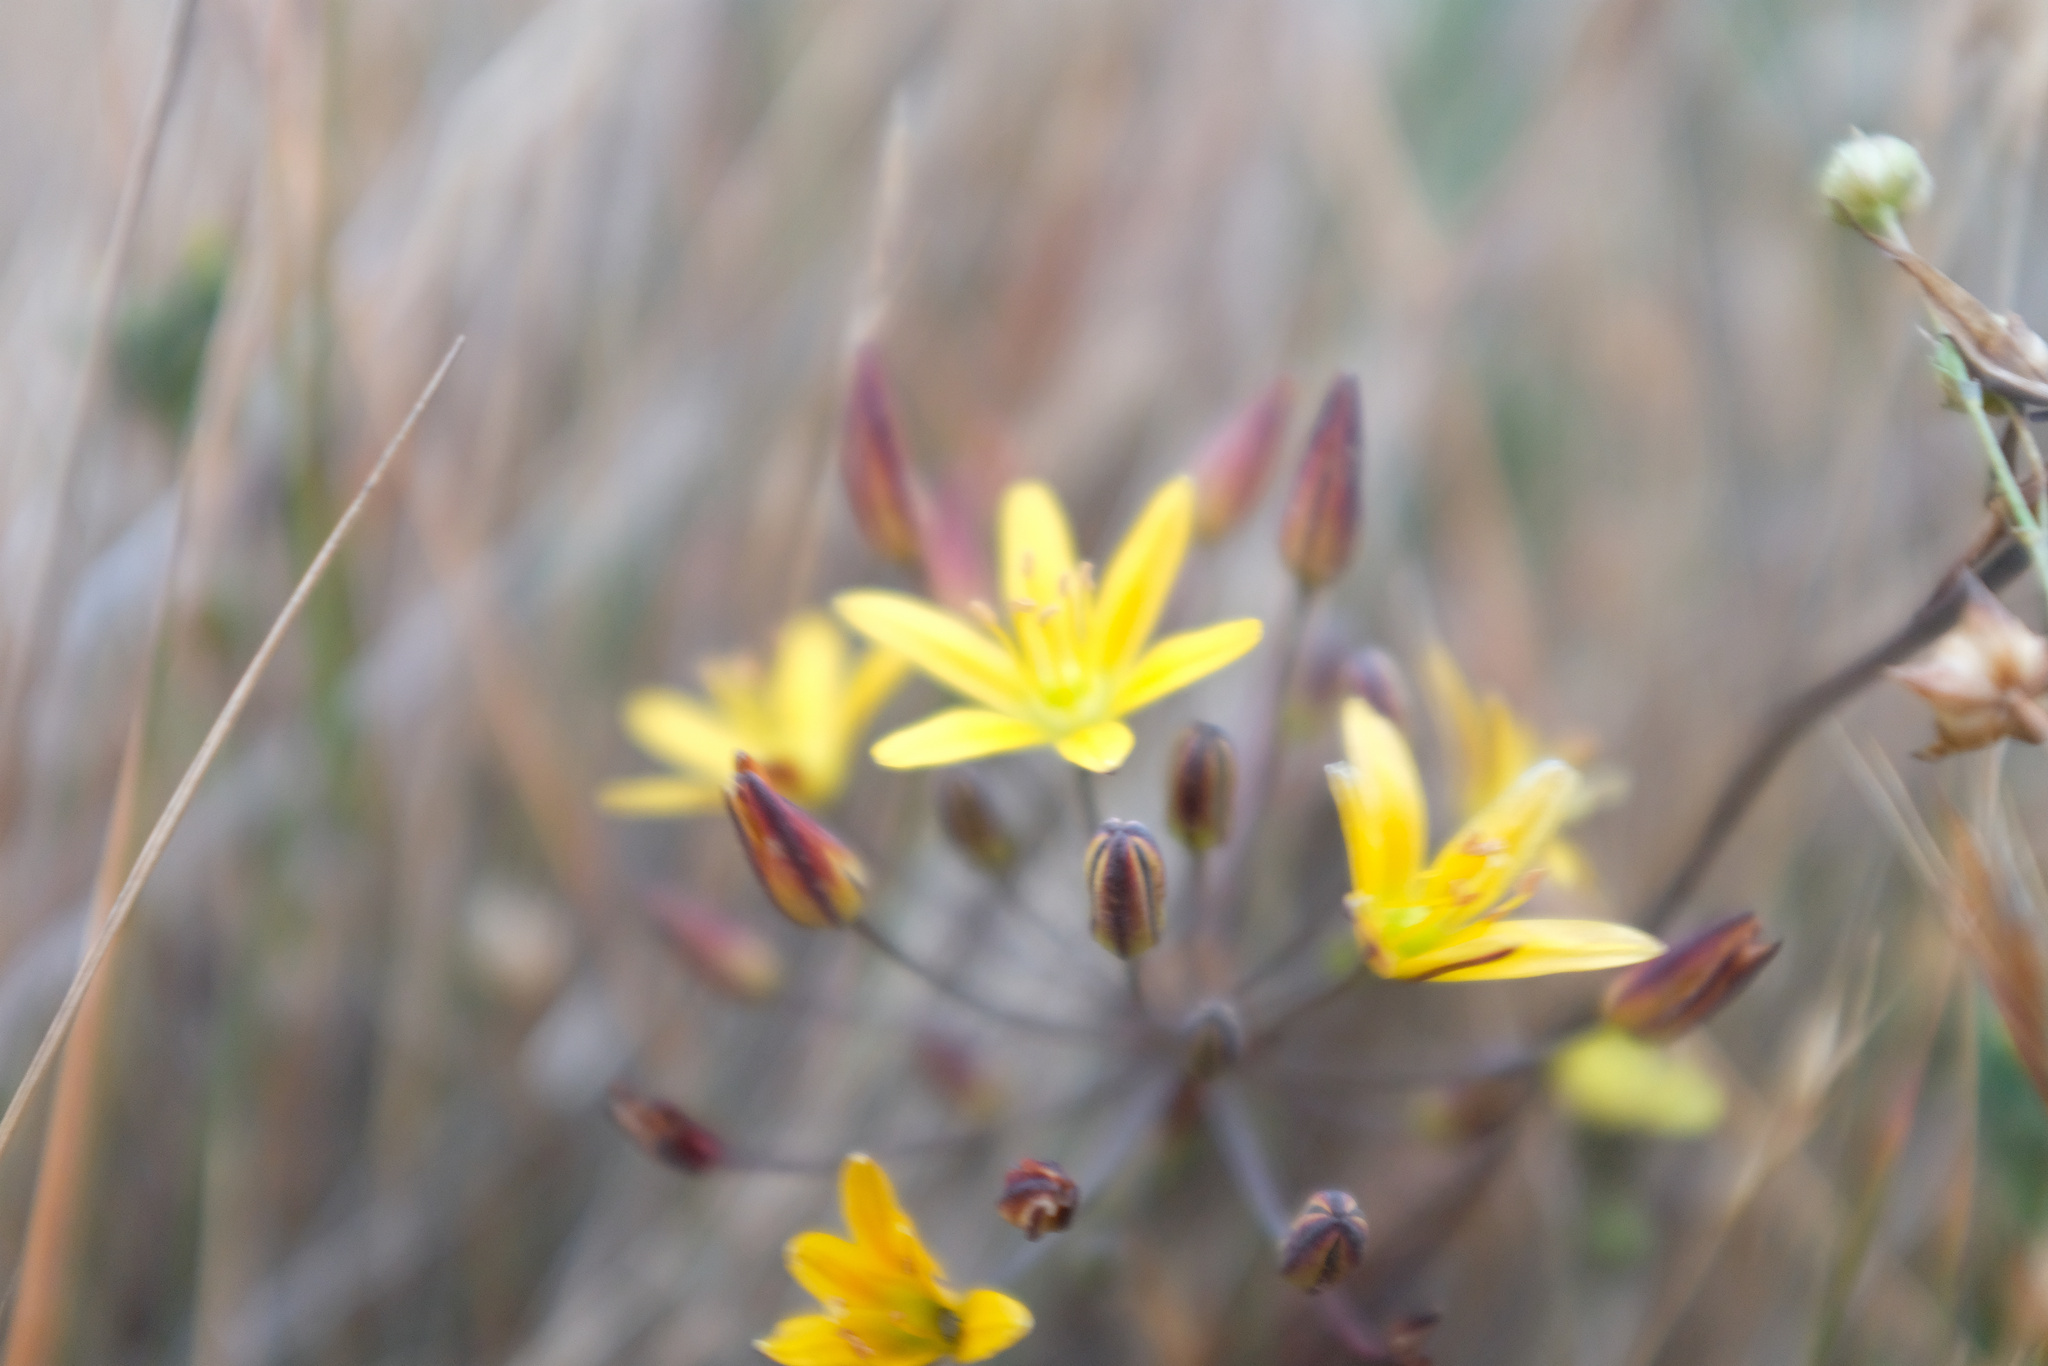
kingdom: Plantae
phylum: Tracheophyta
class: Liliopsida
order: Asparagales
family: Asparagaceae
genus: Bloomeria
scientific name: Bloomeria humilis
